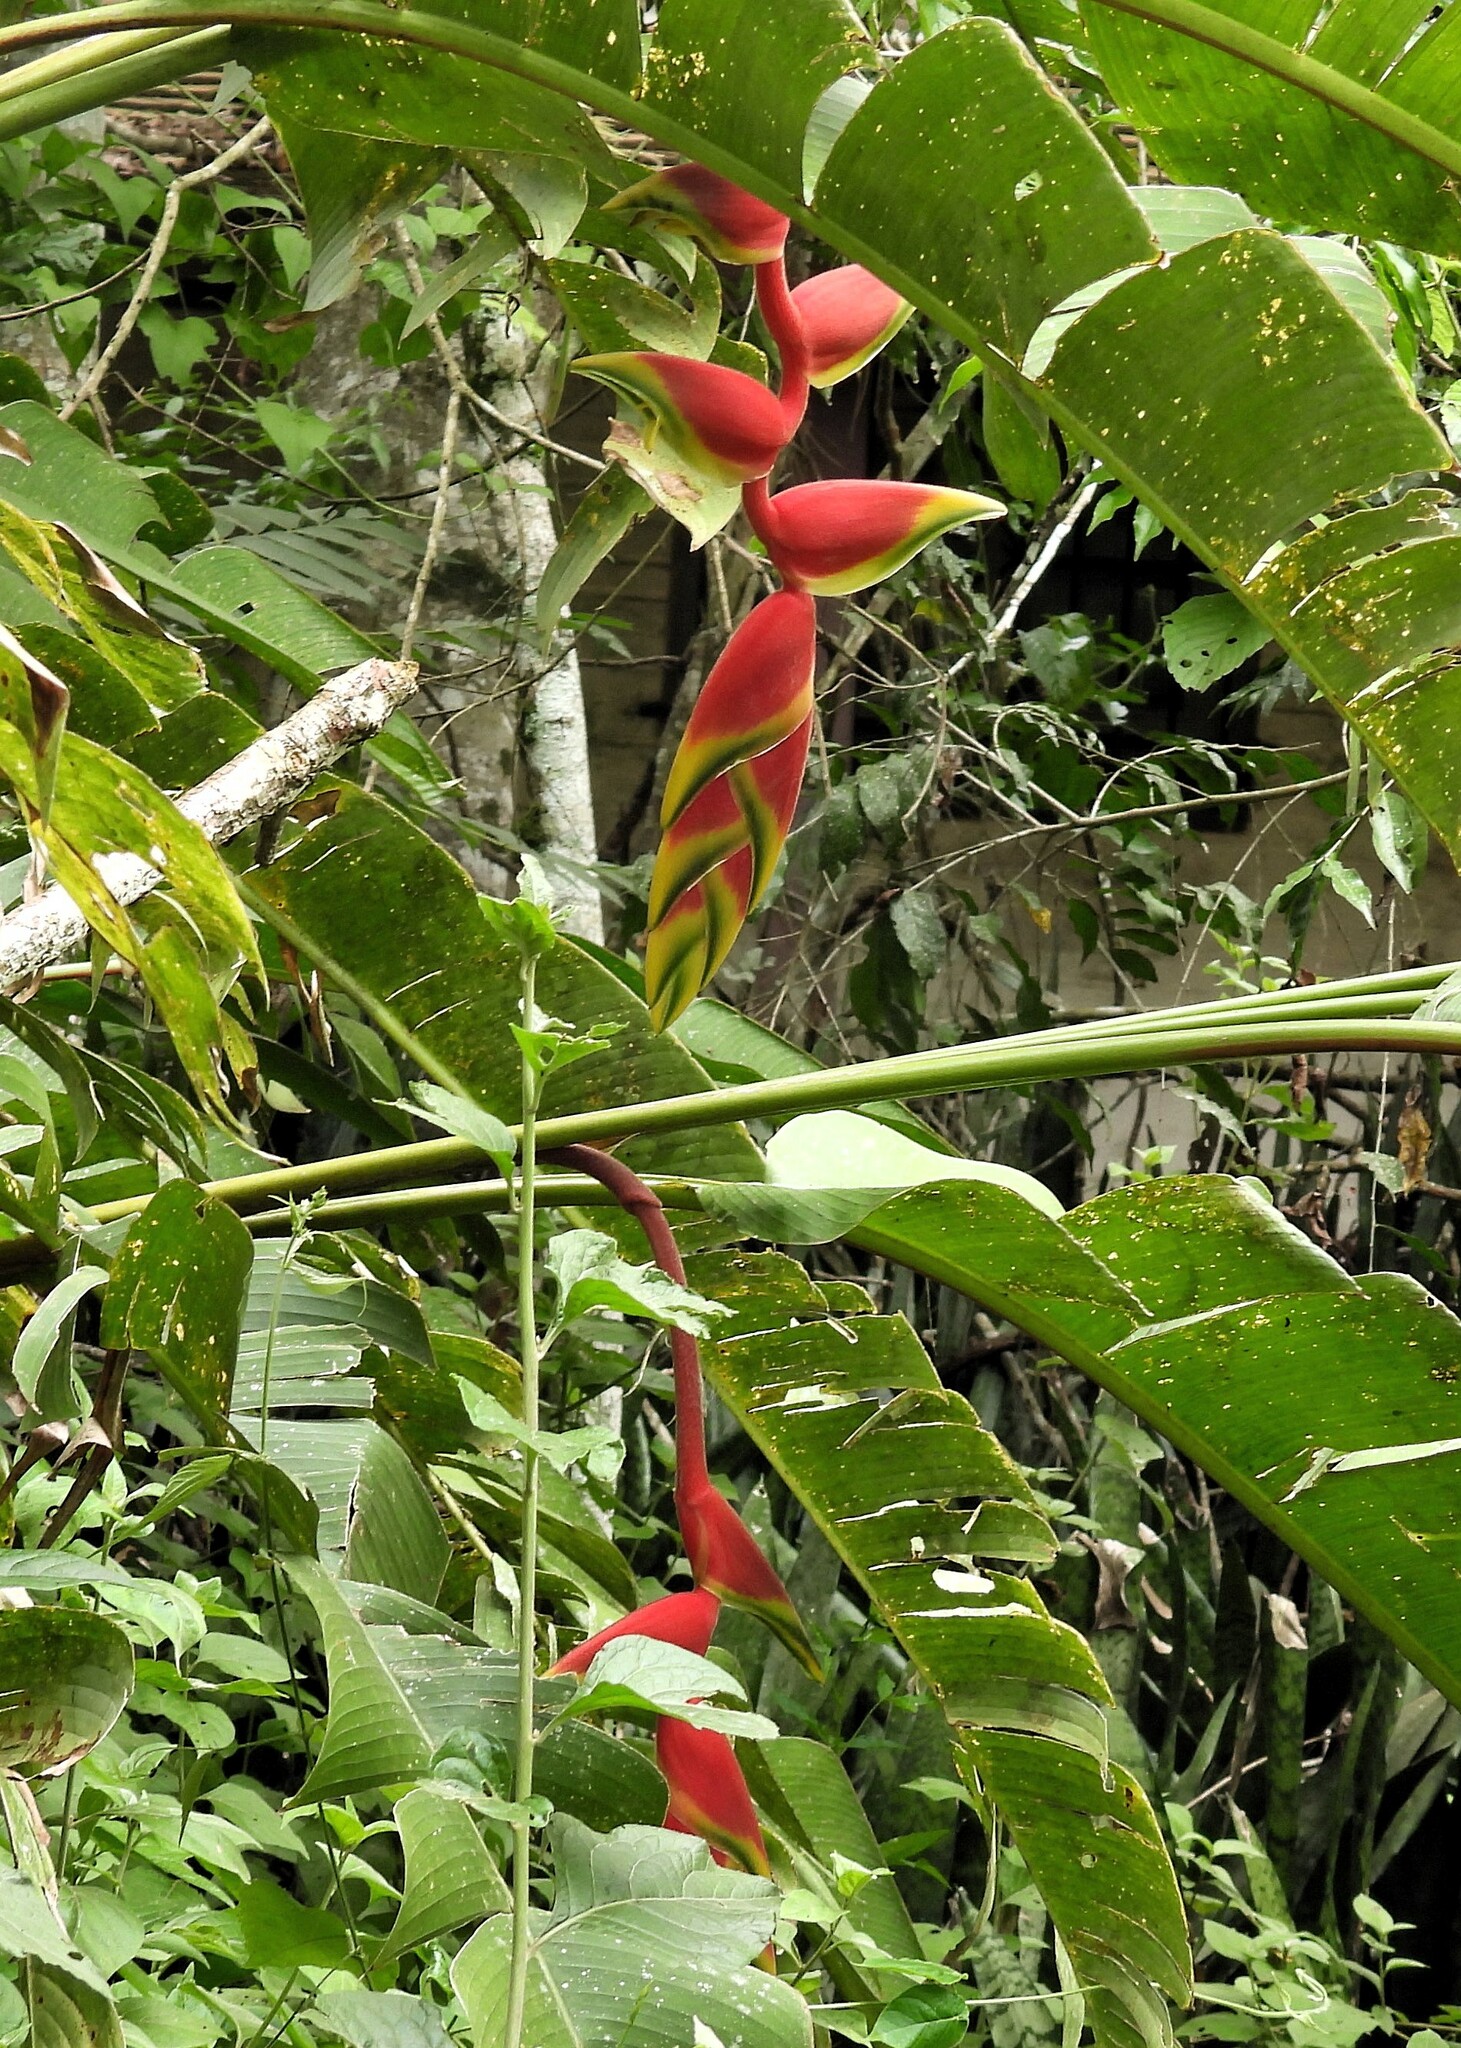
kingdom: Plantae
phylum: Tracheophyta
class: Liliopsida
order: Zingiberales
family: Heliconiaceae
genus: Heliconia
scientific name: Heliconia rostrata
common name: False bird of paradise
